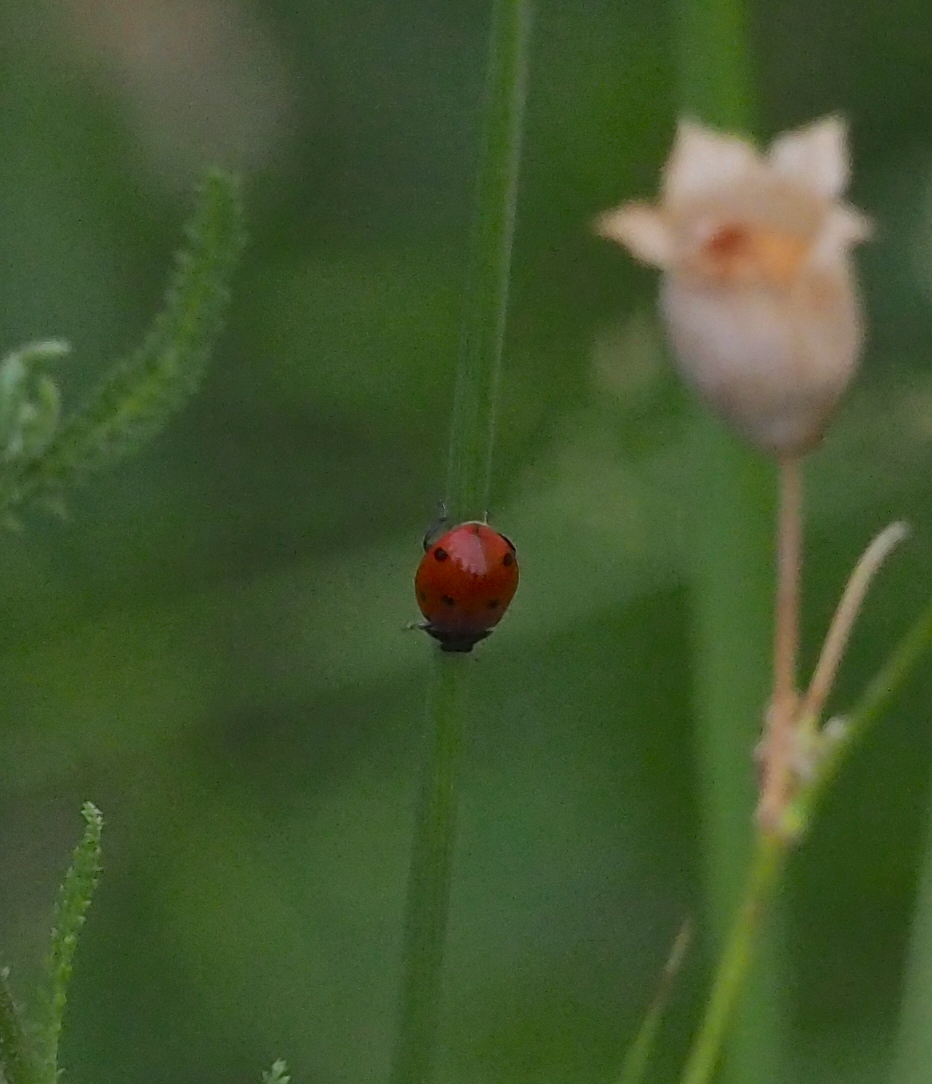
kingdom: Animalia
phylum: Arthropoda
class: Insecta
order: Coleoptera
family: Coccinellidae
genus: Coccinella
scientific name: Coccinella septempunctata
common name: Sevenspotted lady beetle
